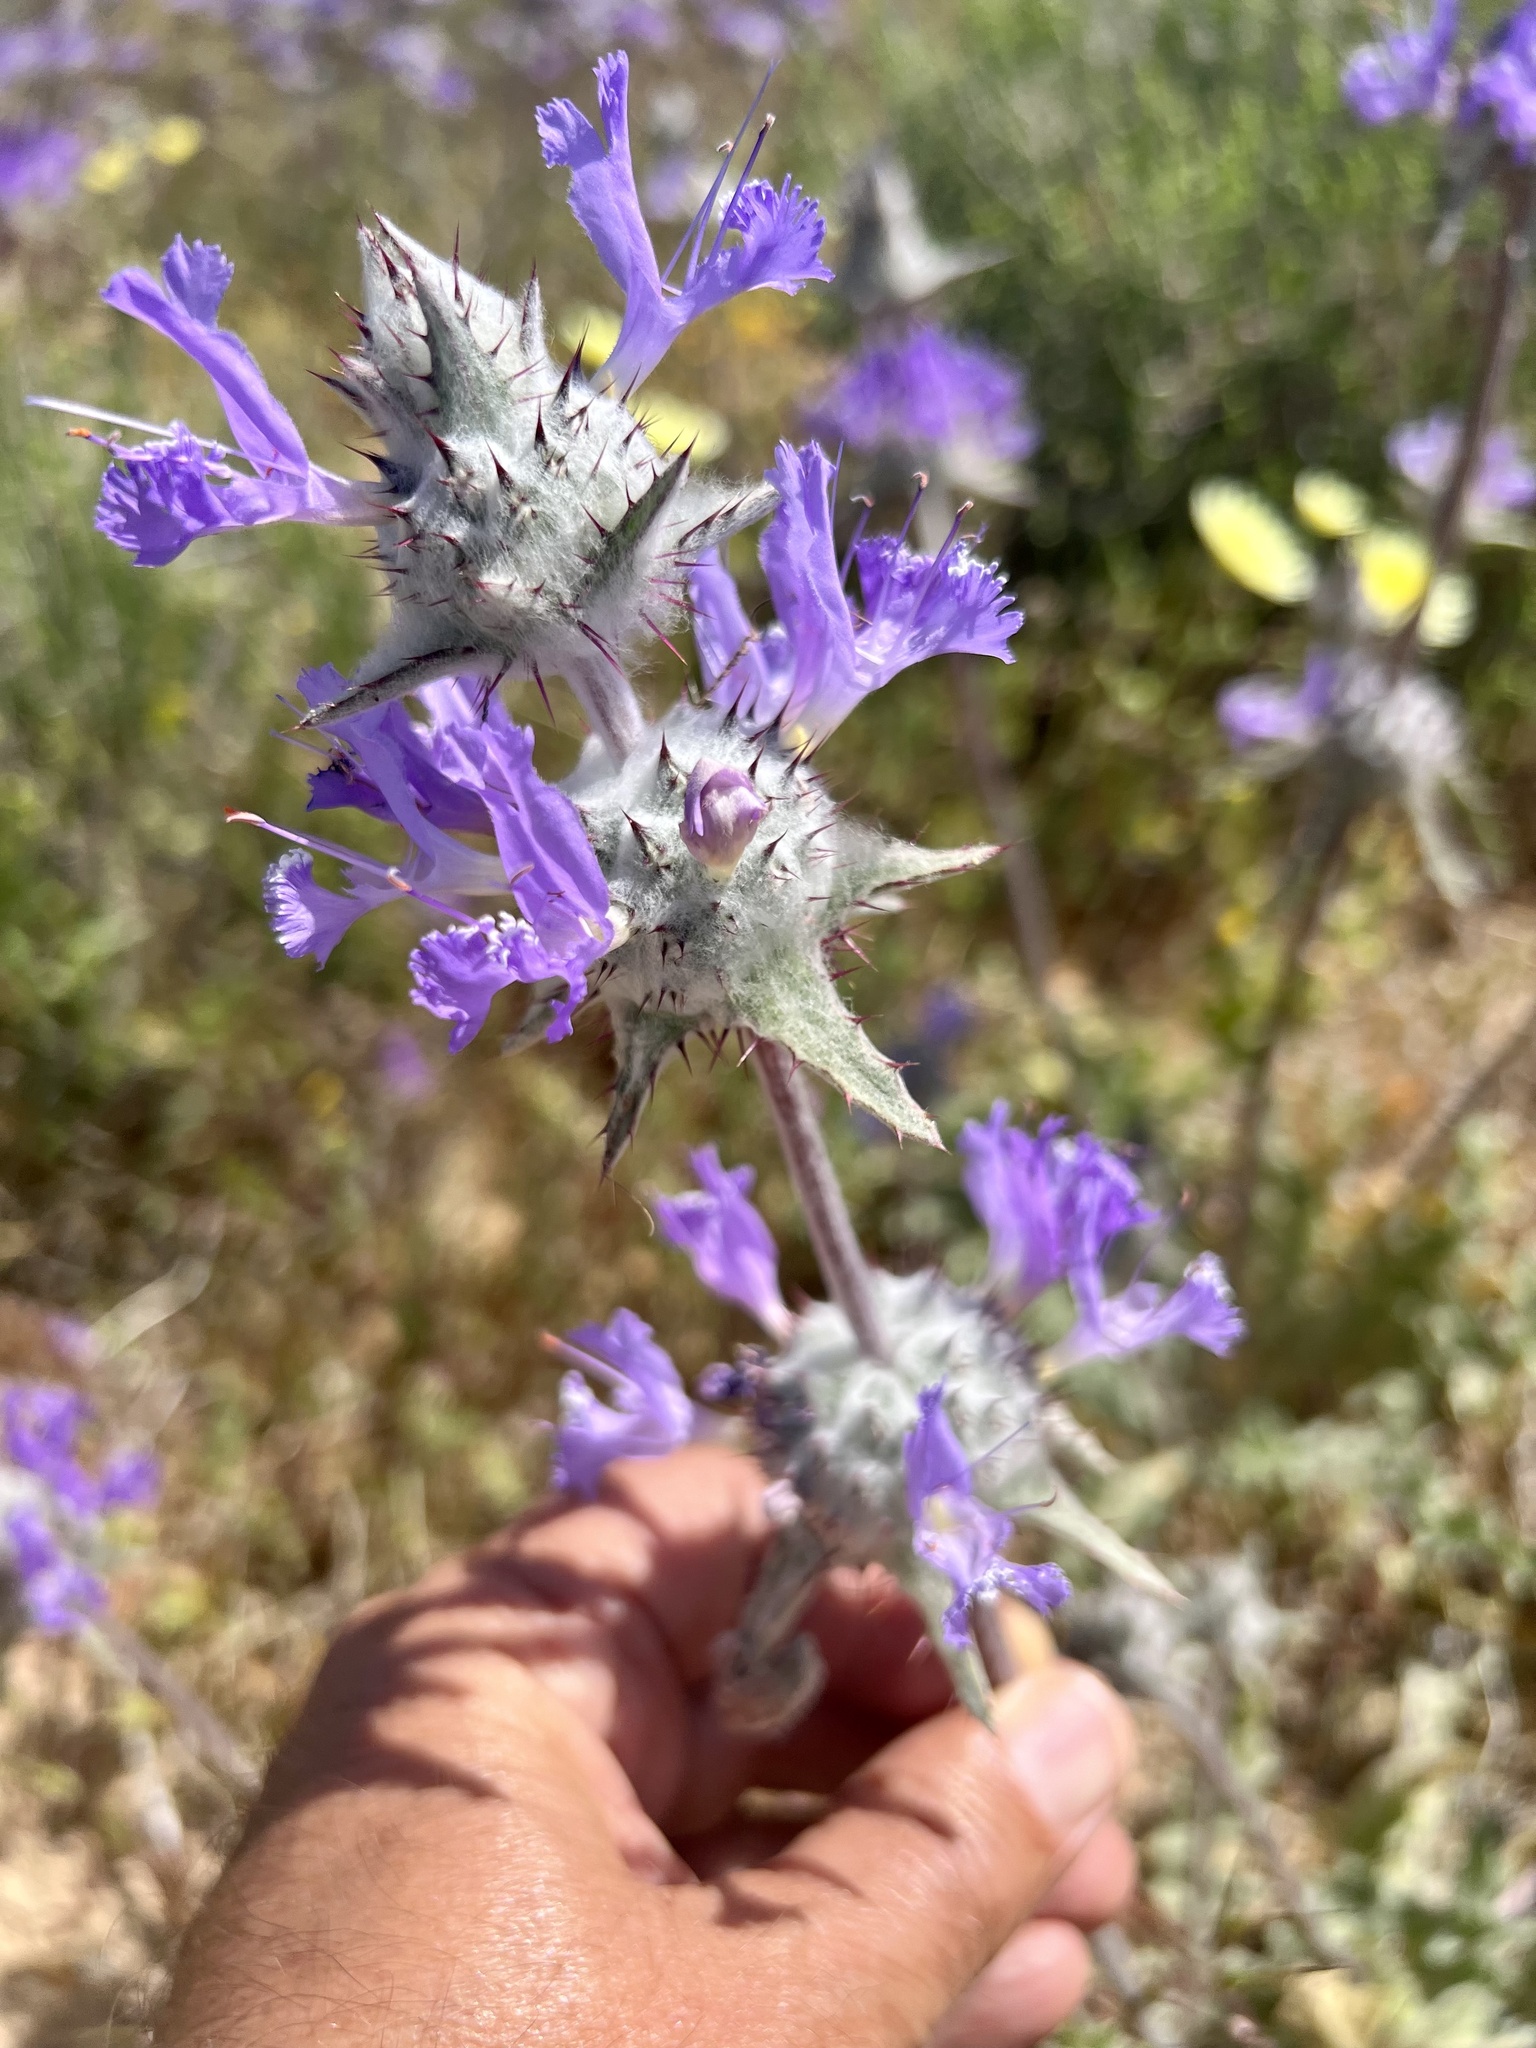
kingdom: Plantae
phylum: Tracheophyta
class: Magnoliopsida
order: Lamiales
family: Lamiaceae
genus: Salvia
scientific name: Salvia carduacea
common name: Thistle sage
